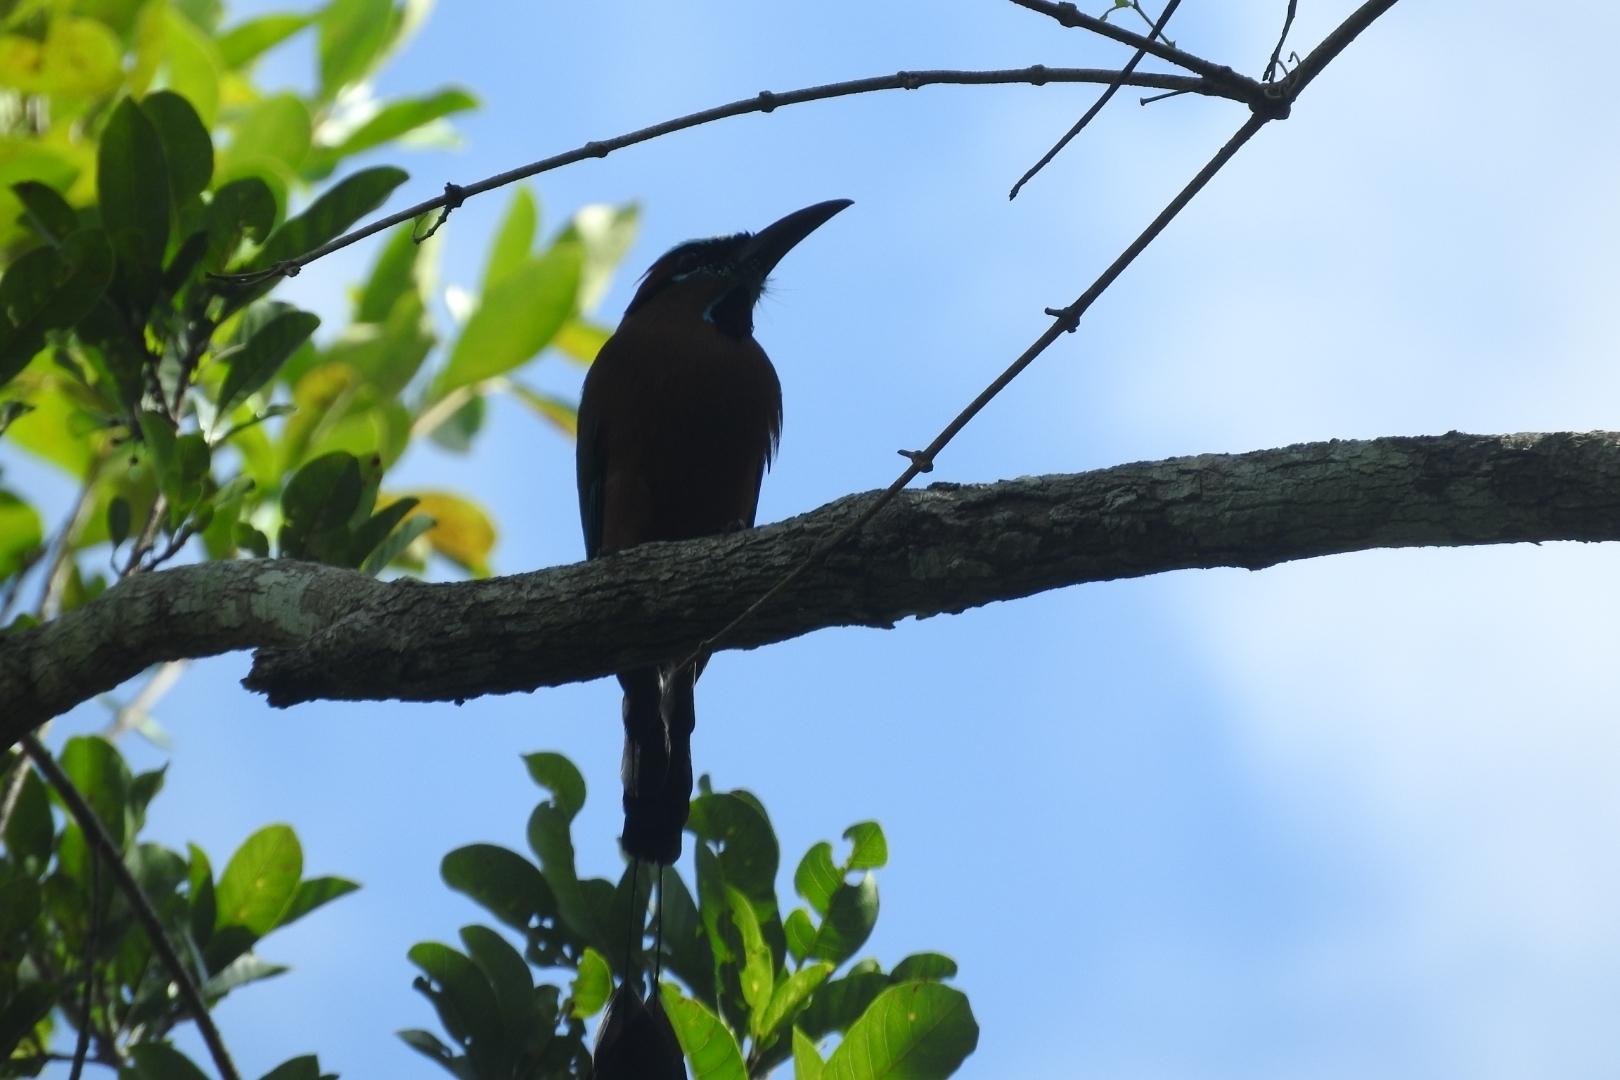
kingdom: Animalia
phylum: Chordata
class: Aves
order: Coraciiformes
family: Momotidae
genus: Eumomota
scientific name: Eumomota superciliosa
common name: Turquoise-browed motmot
